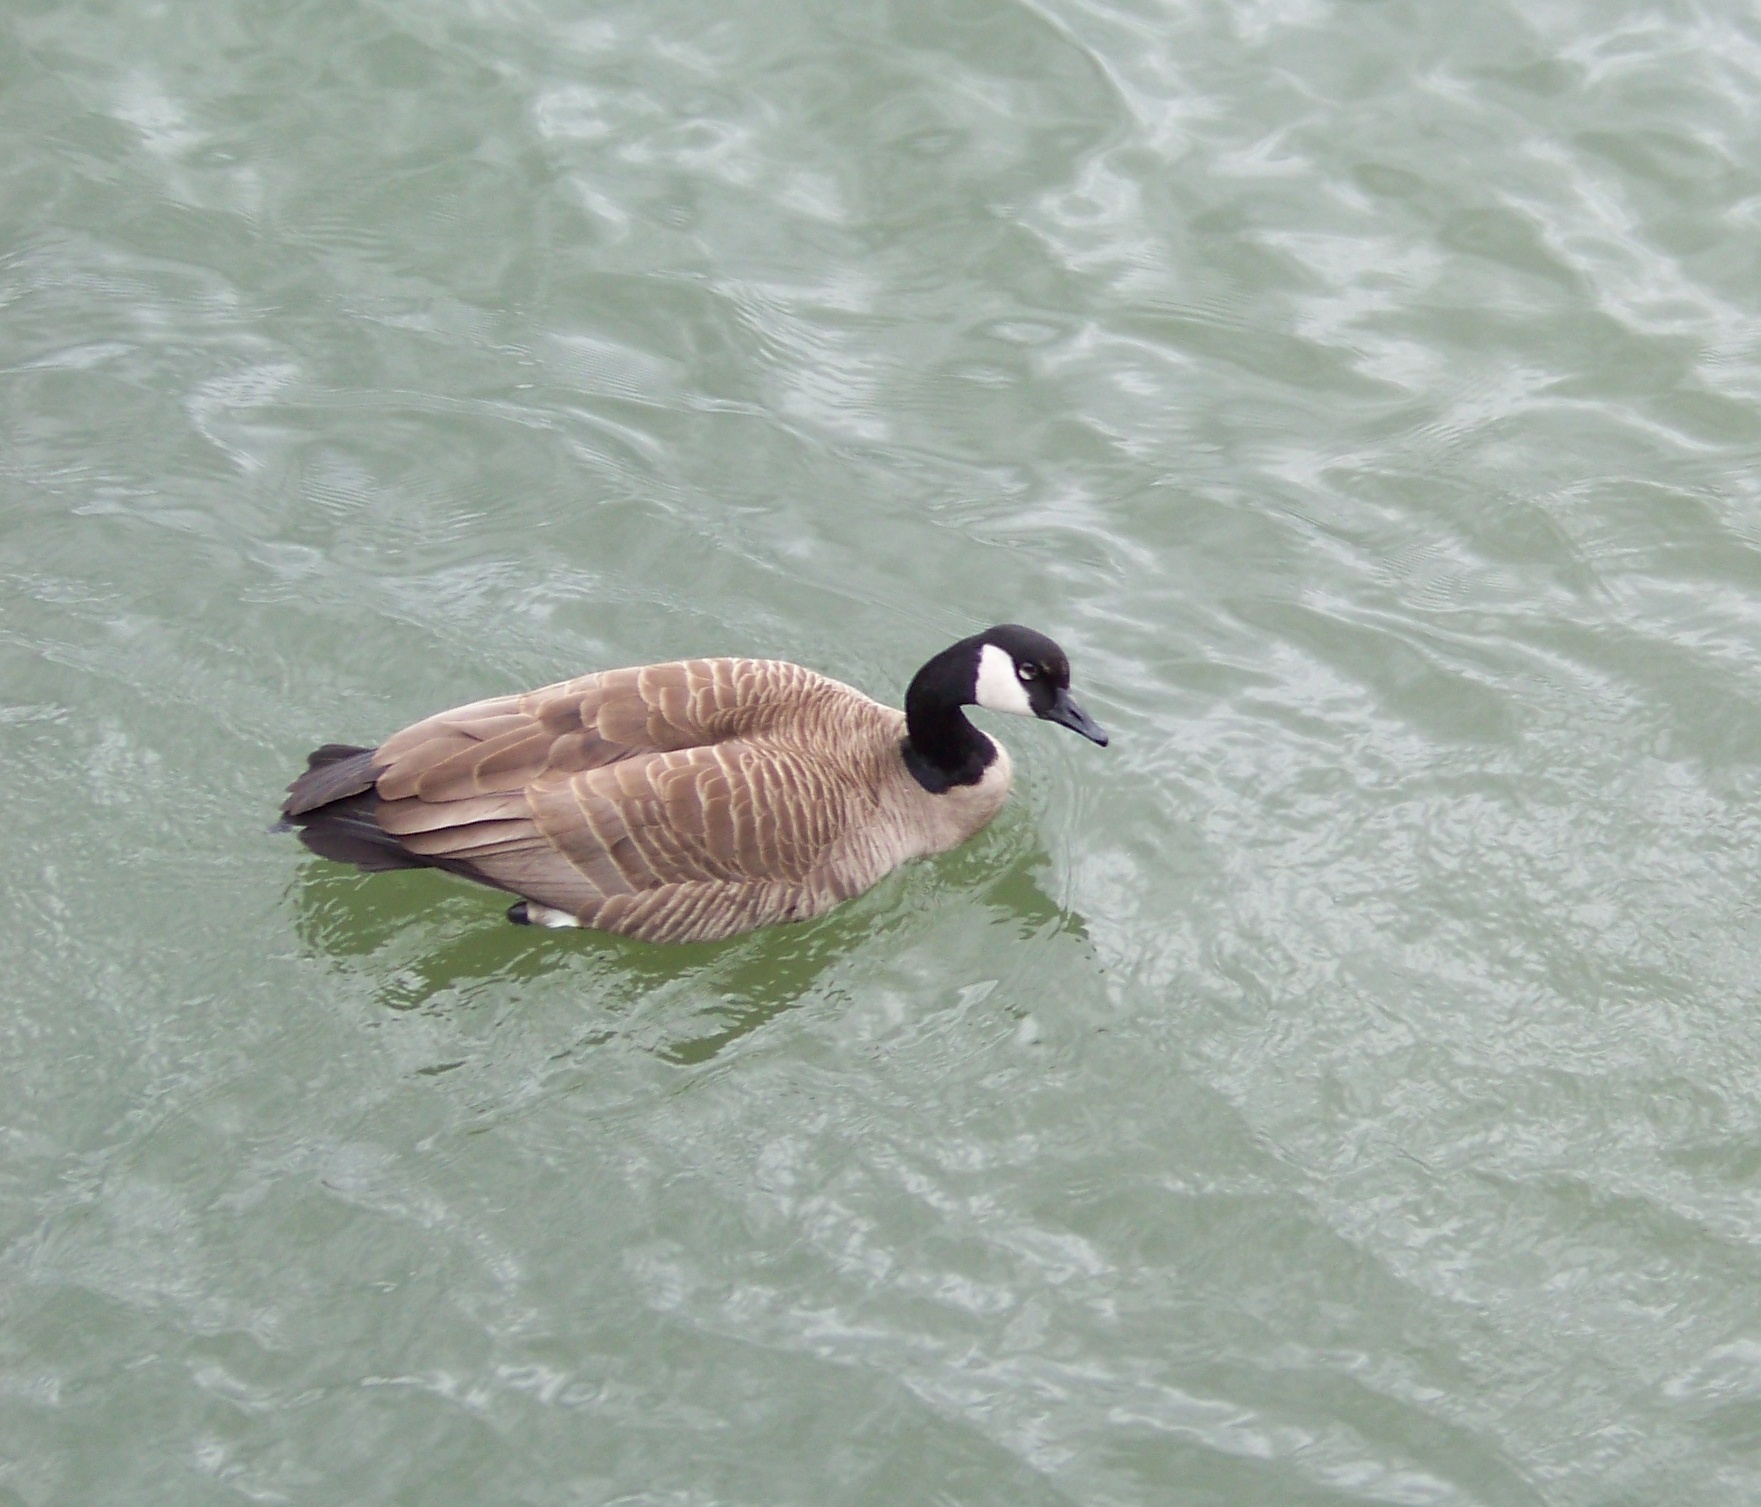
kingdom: Animalia
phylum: Chordata
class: Aves
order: Anseriformes
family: Anatidae
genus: Branta
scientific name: Branta canadensis
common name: Canada goose
